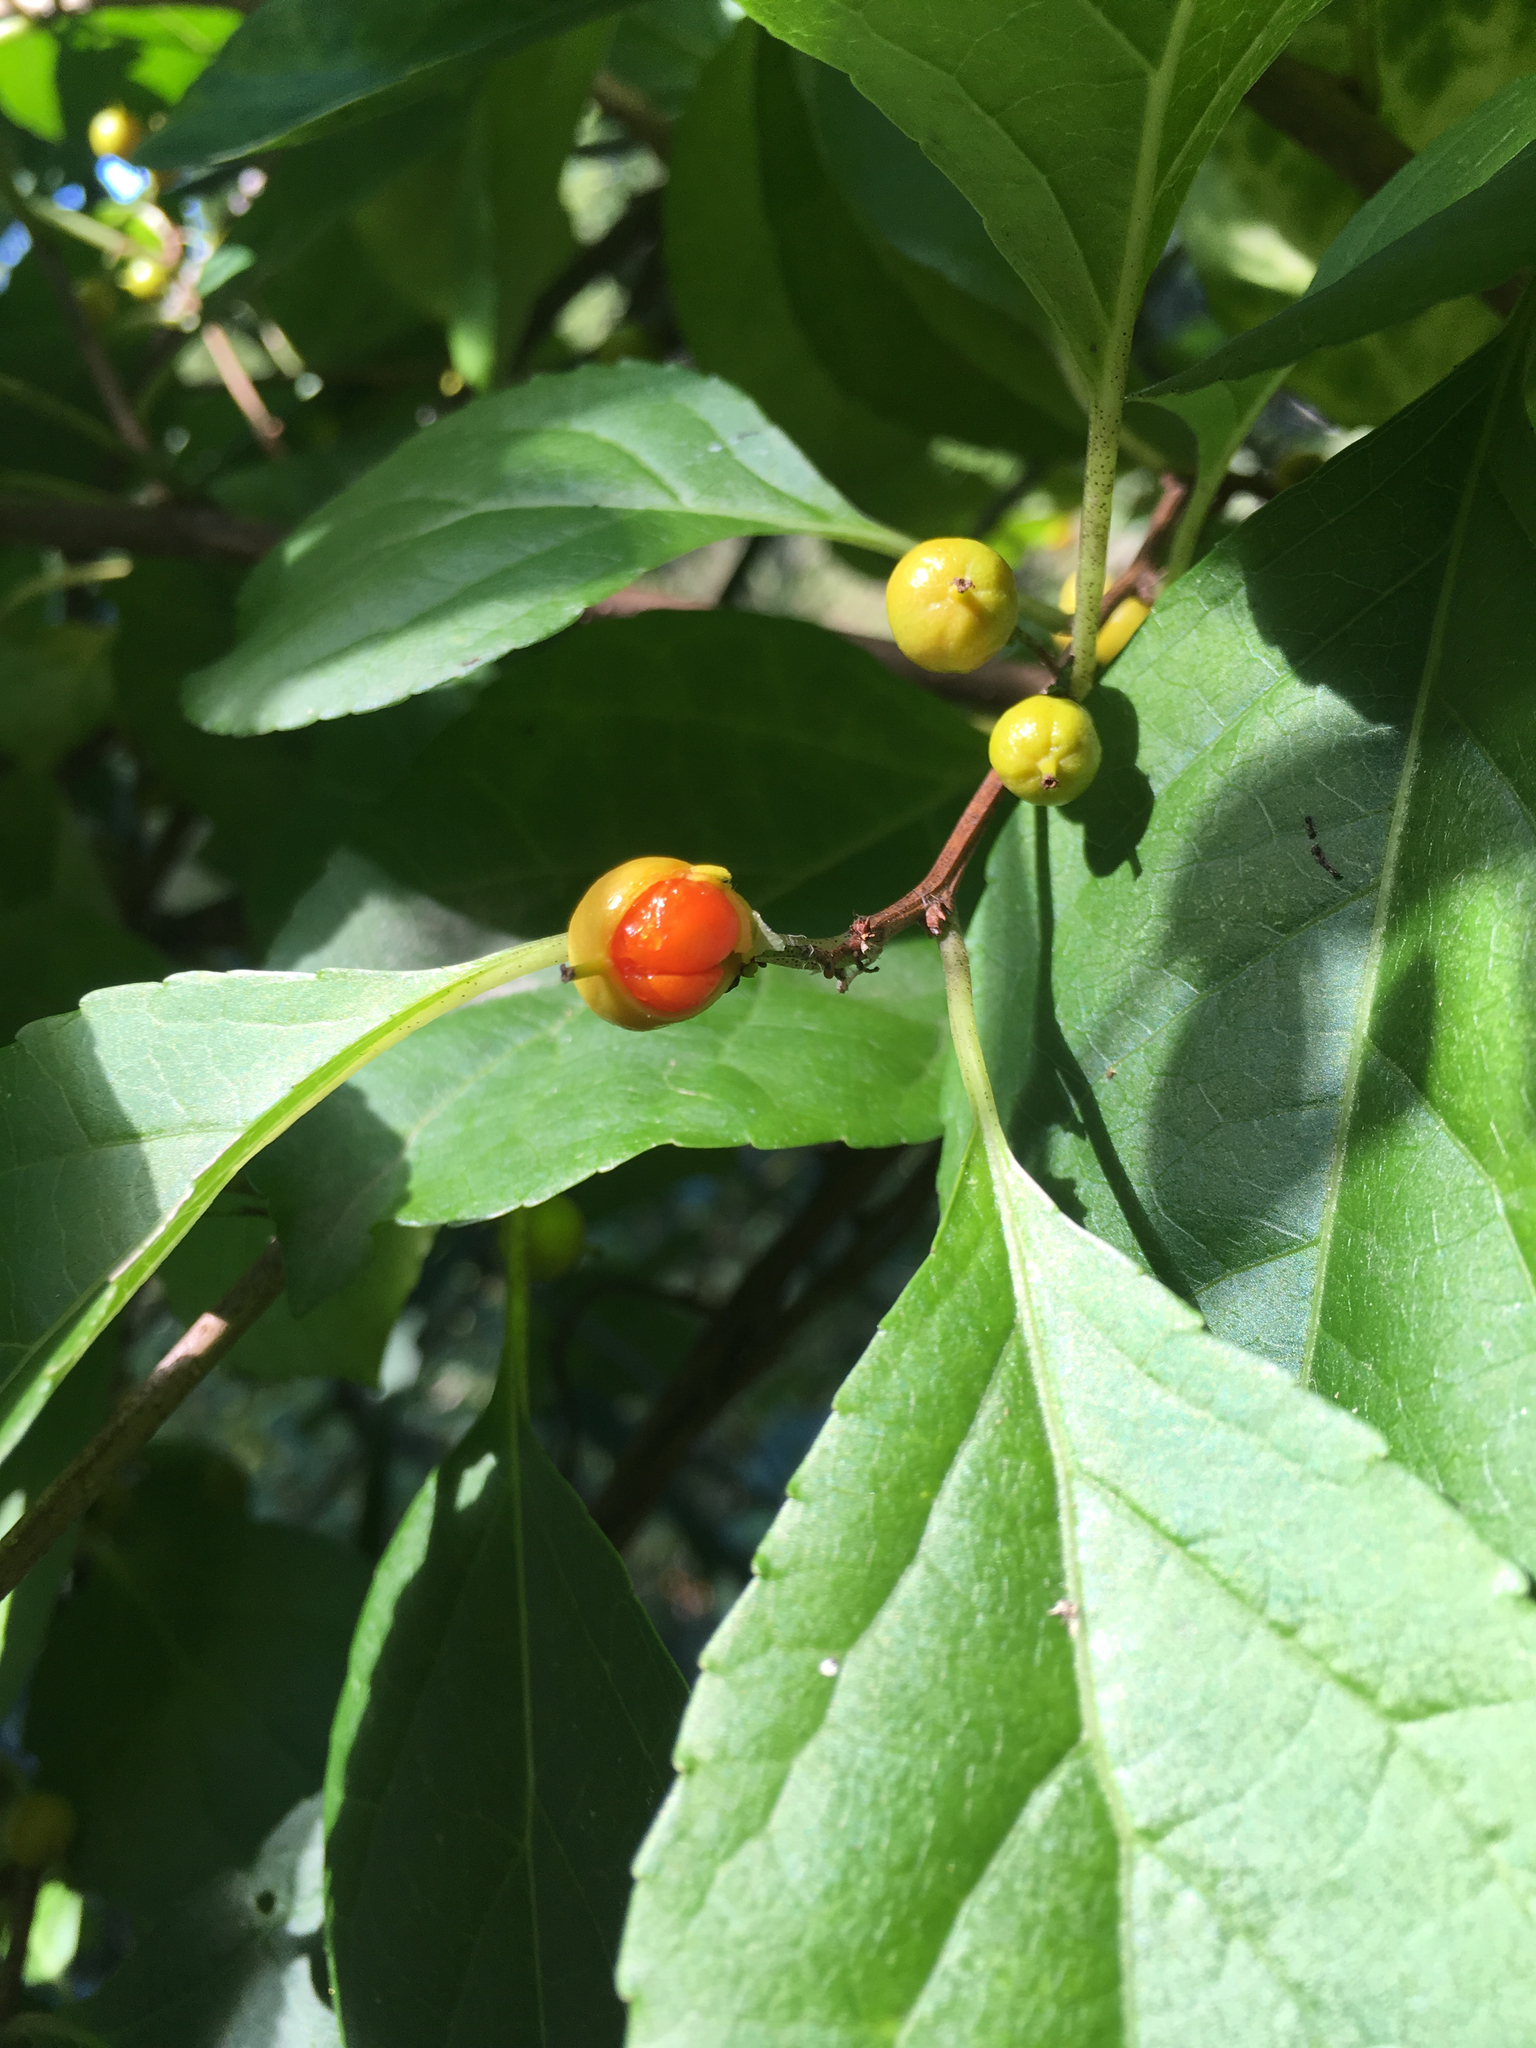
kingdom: Plantae
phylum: Tracheophyta
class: Magnoliopsida
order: Celastrales
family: Celastraceae
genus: Celastrus
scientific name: Celastrus orbiculatus
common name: Oriental bittersweet
